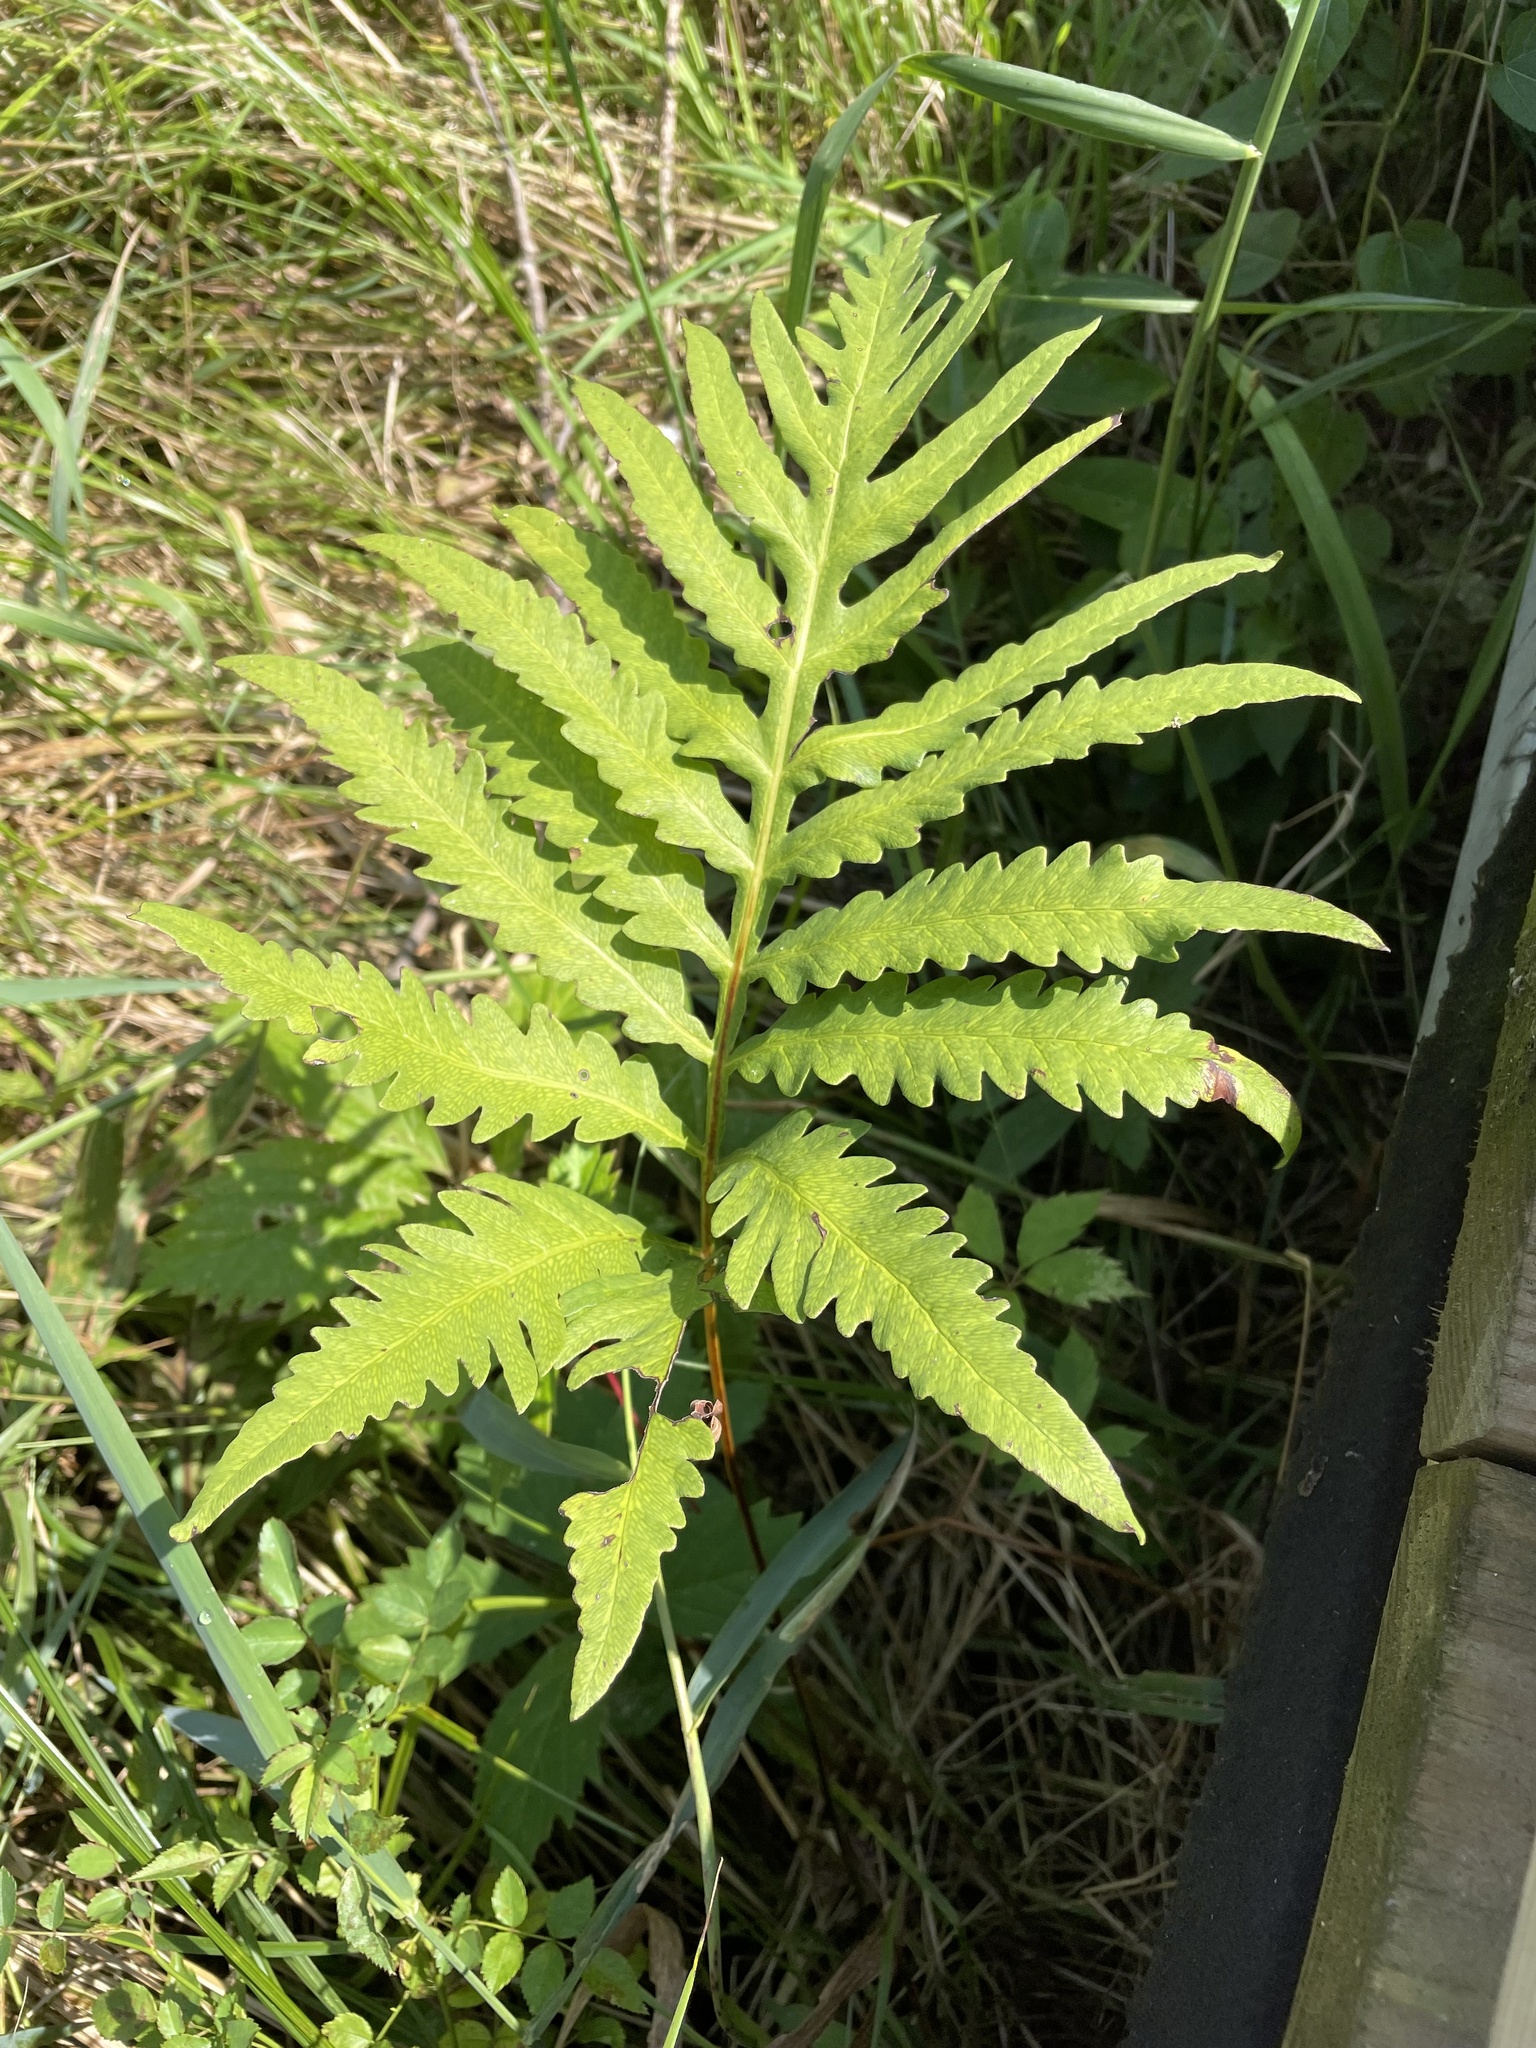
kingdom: Plantae
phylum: Tracheophyta
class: Polypodiopsida
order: Polypodiales
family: Onocleaceae
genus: Onoclea
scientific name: Onoclea sensibilis
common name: Sensitive fern
